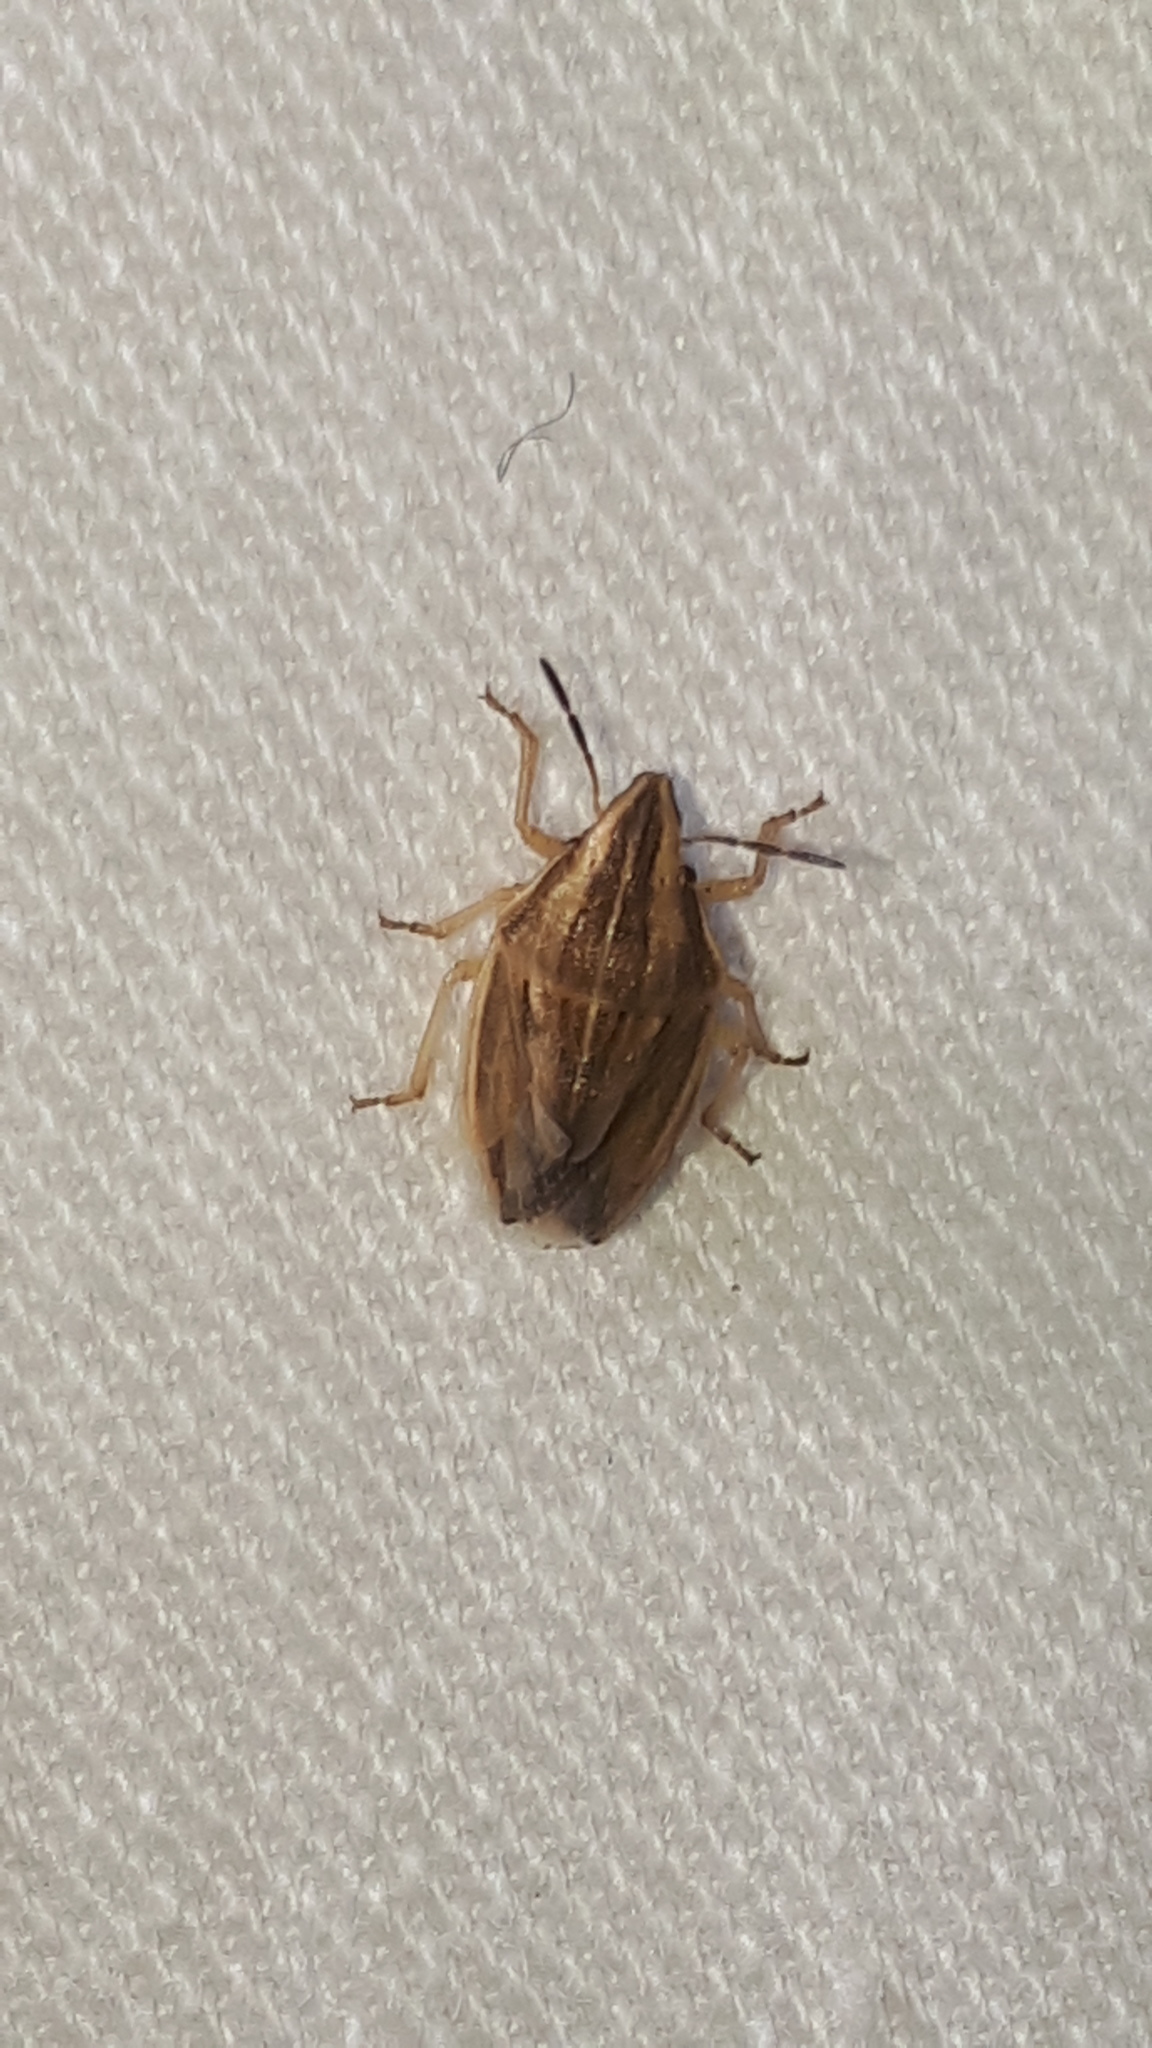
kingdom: Animalia
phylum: Arthropoda
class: Insecta
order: Hemiptera
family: Pentatomidae
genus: Aelia
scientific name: Aelia acuminata
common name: Bishop's mitre
